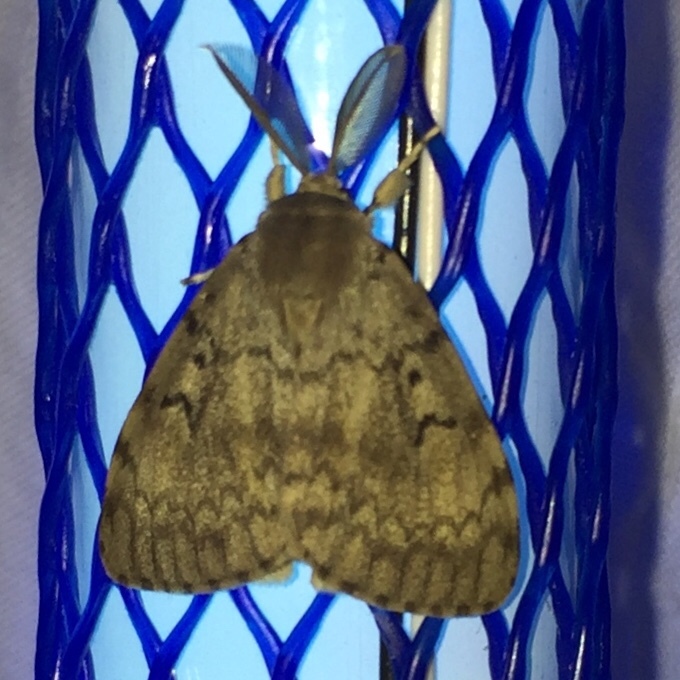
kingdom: Animalia
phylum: Arthropoda
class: Insecta
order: Lepidoptera
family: Erebidae
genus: Lymantria
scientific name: Lymantria dispar
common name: Gypsy moth
